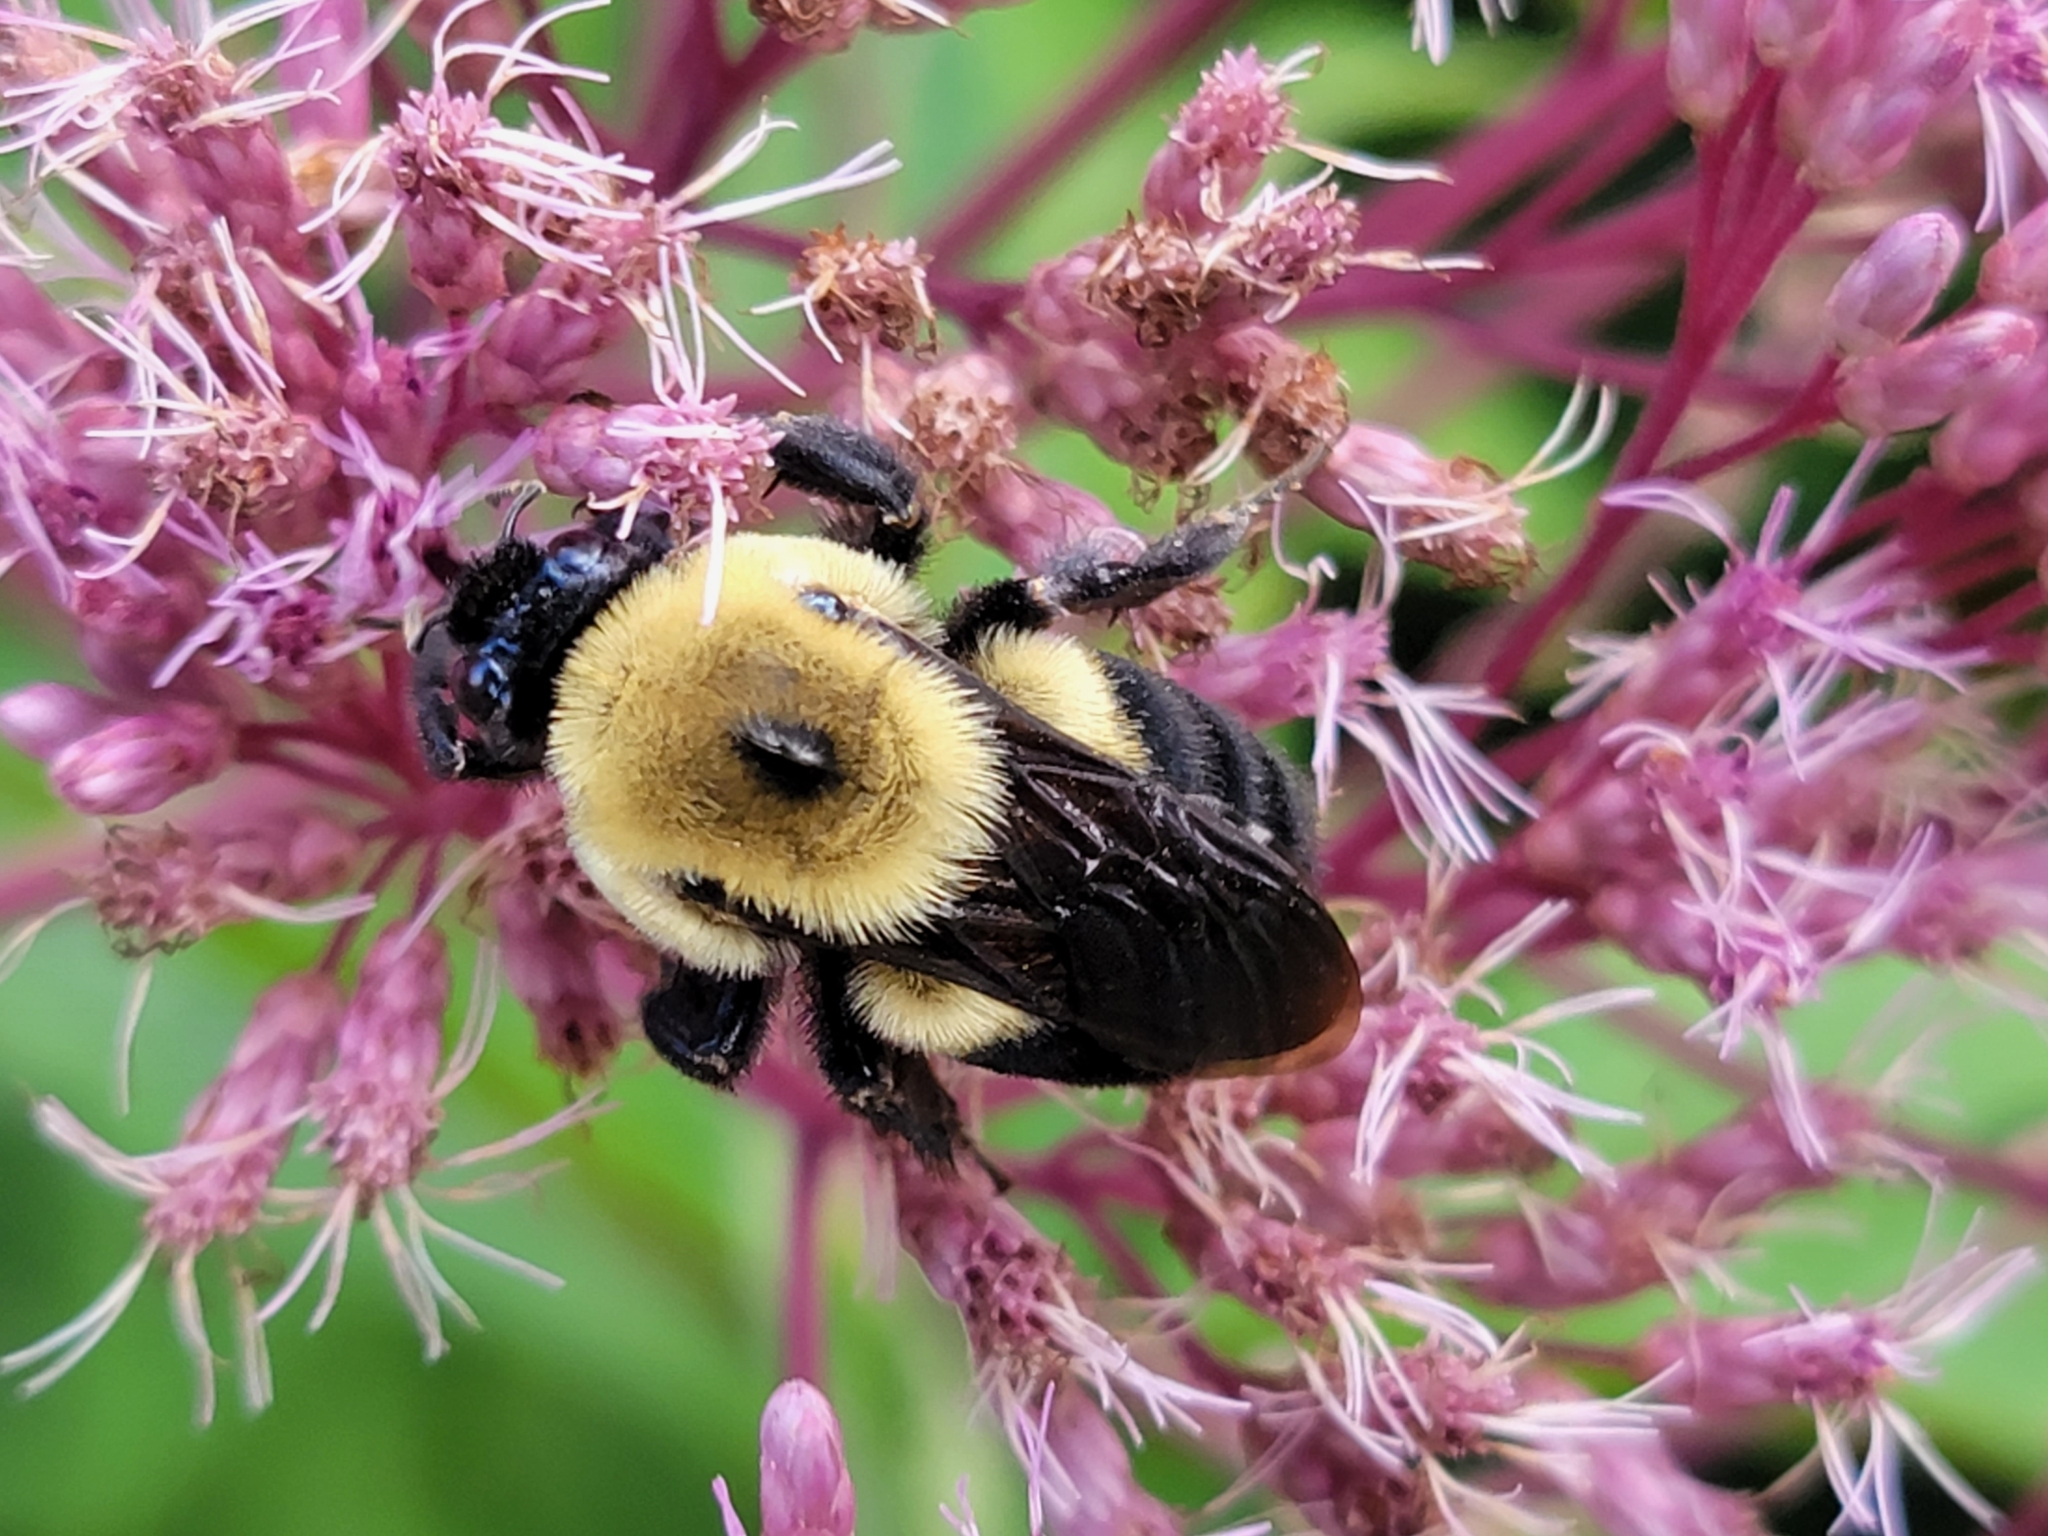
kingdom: Animalia
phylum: Arthropoda
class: Insecta
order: Hymenoptera
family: Apidae
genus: Bombus
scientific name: Bombus griseocollis
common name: Brown-belted bumble bee
